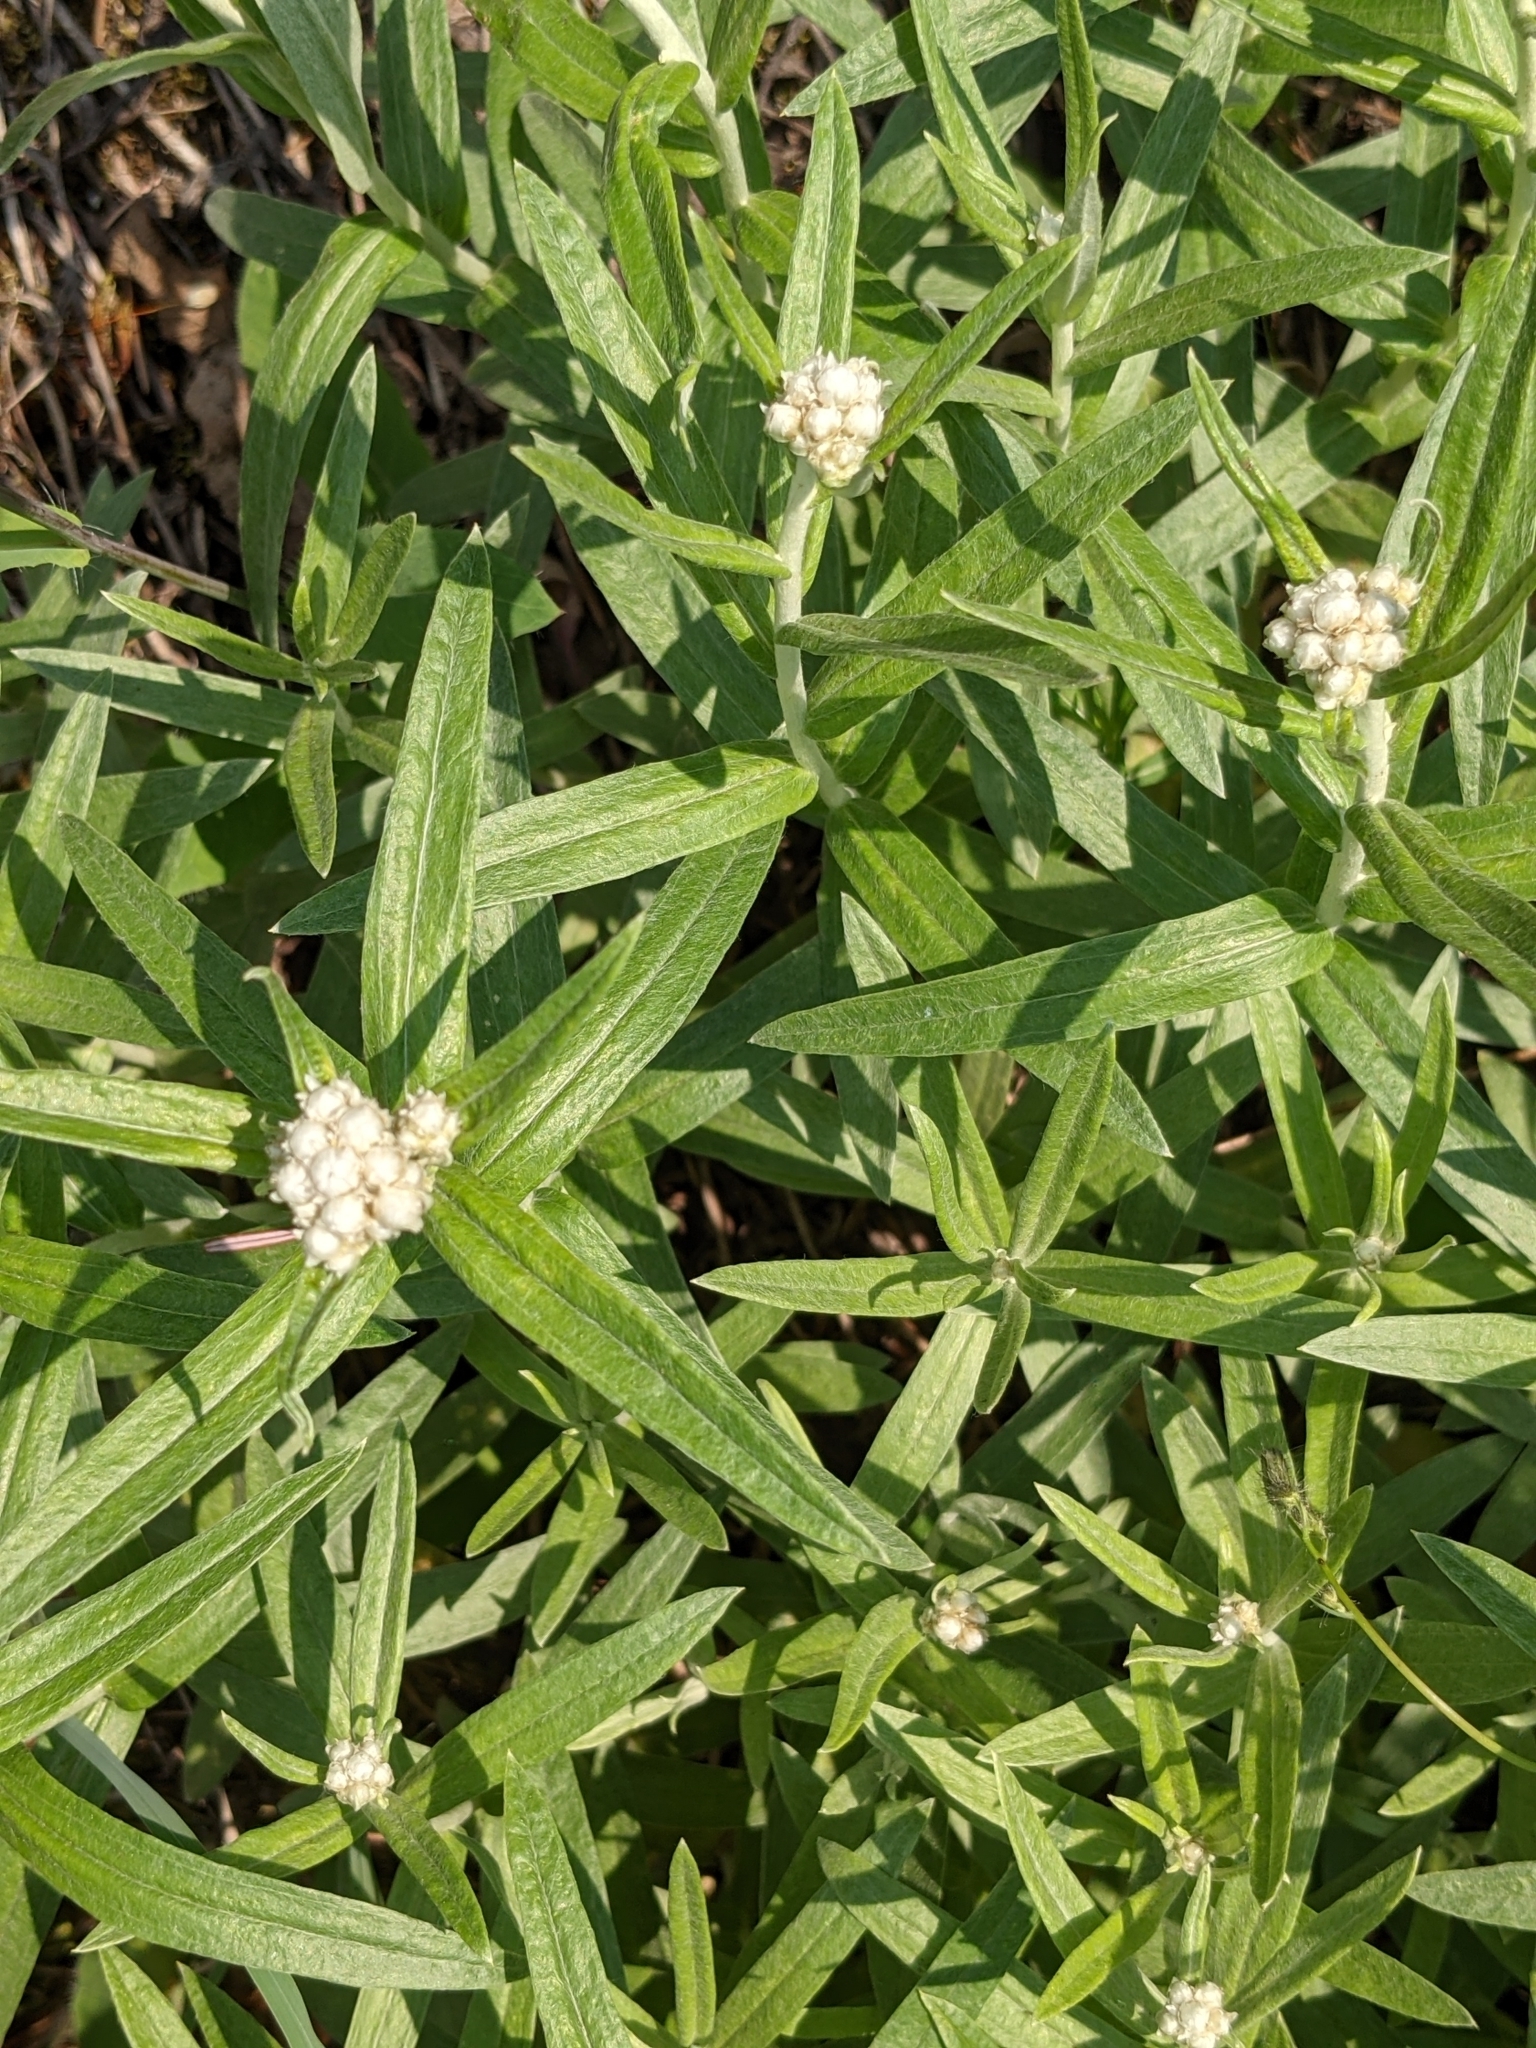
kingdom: Plantae
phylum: Tracheophyta
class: Magnoliopsida
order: Asterales
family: Asteraceae
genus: Anaphalis
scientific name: Anaphalis margaritacea
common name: Pearly everlasting
